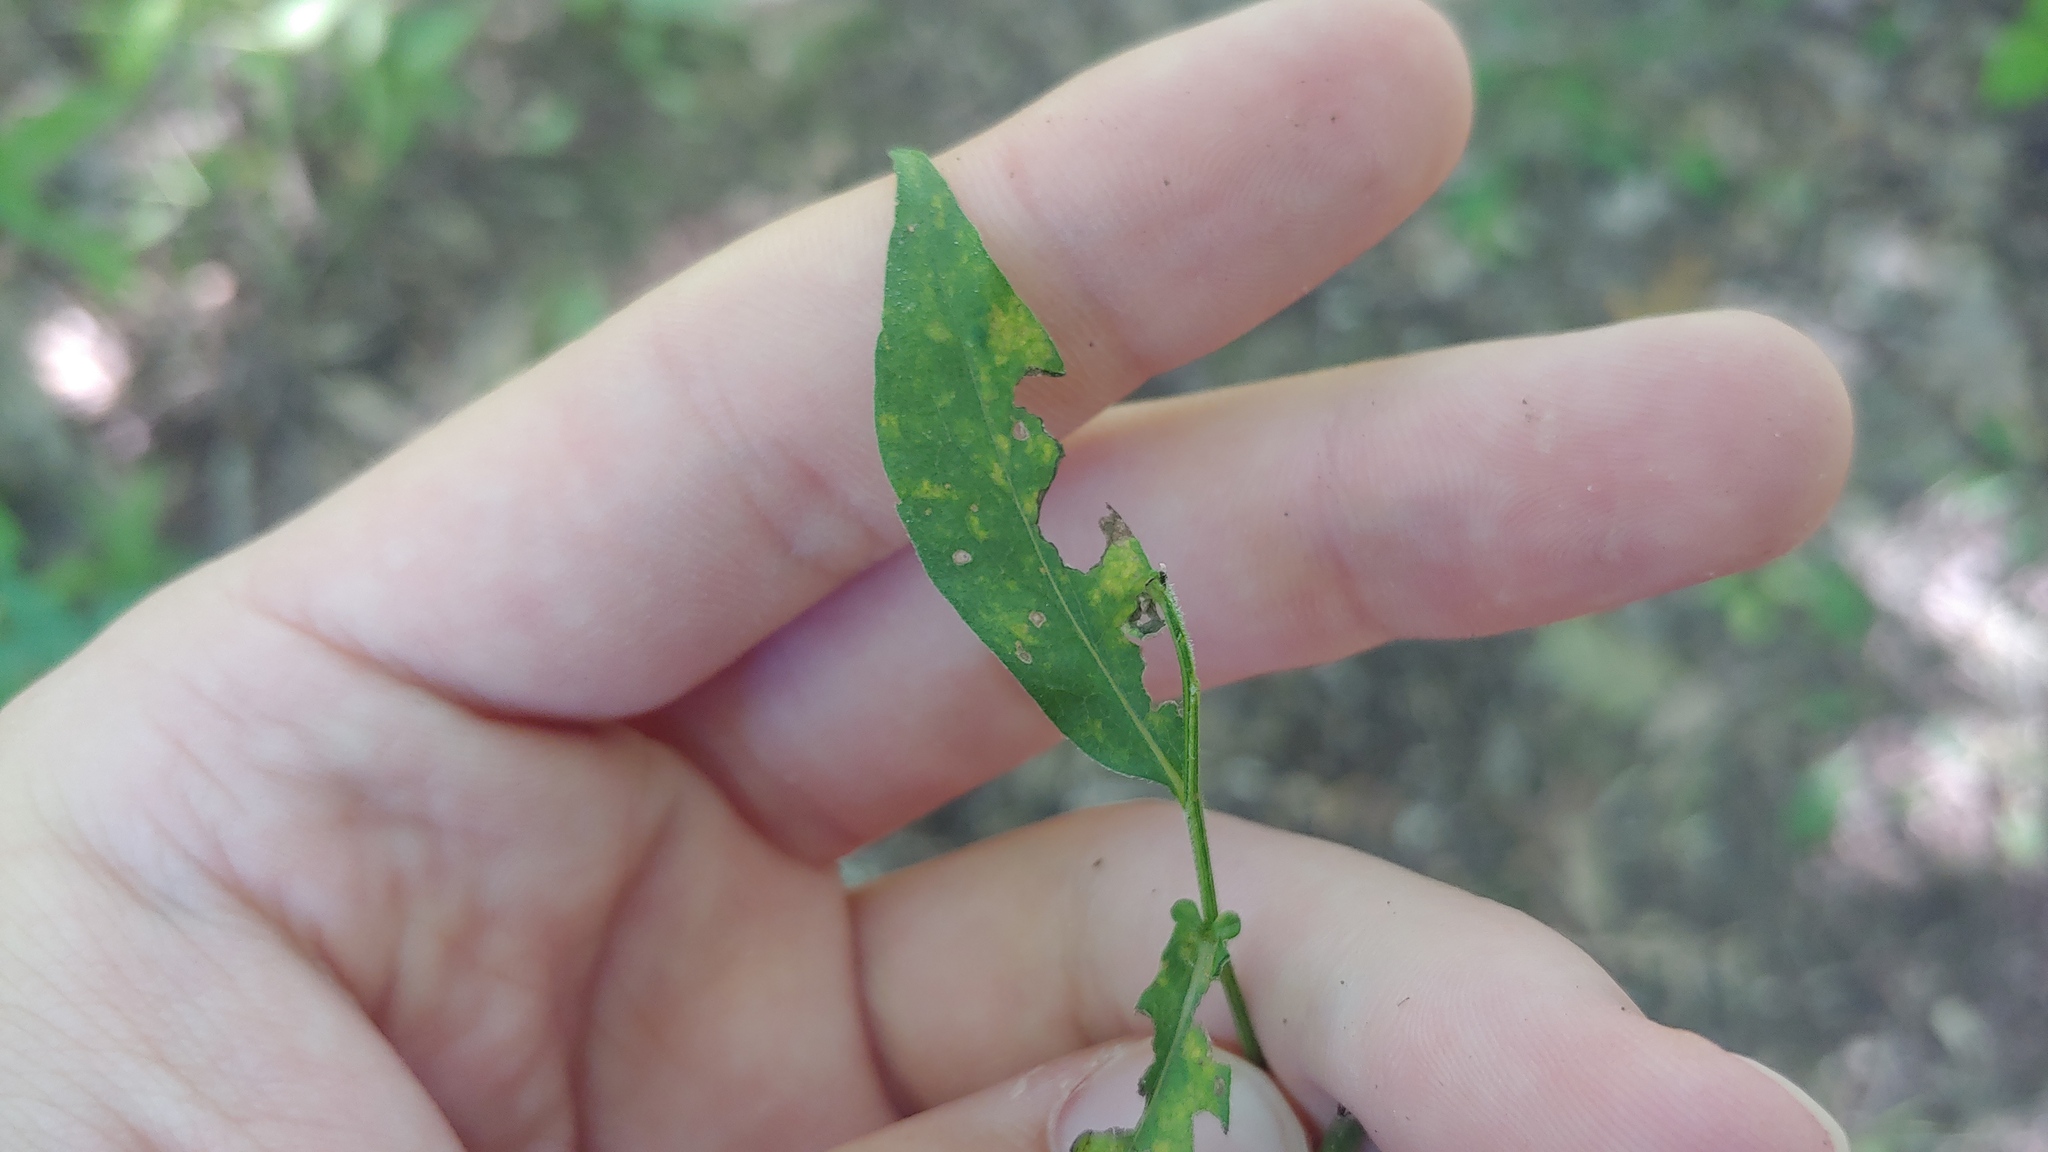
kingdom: Fungi
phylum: Basidiomycota
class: Pucciniomycetes
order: Pucciniales
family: Coleosporiaceae
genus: Coleosporium
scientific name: Coleosporium asterum
